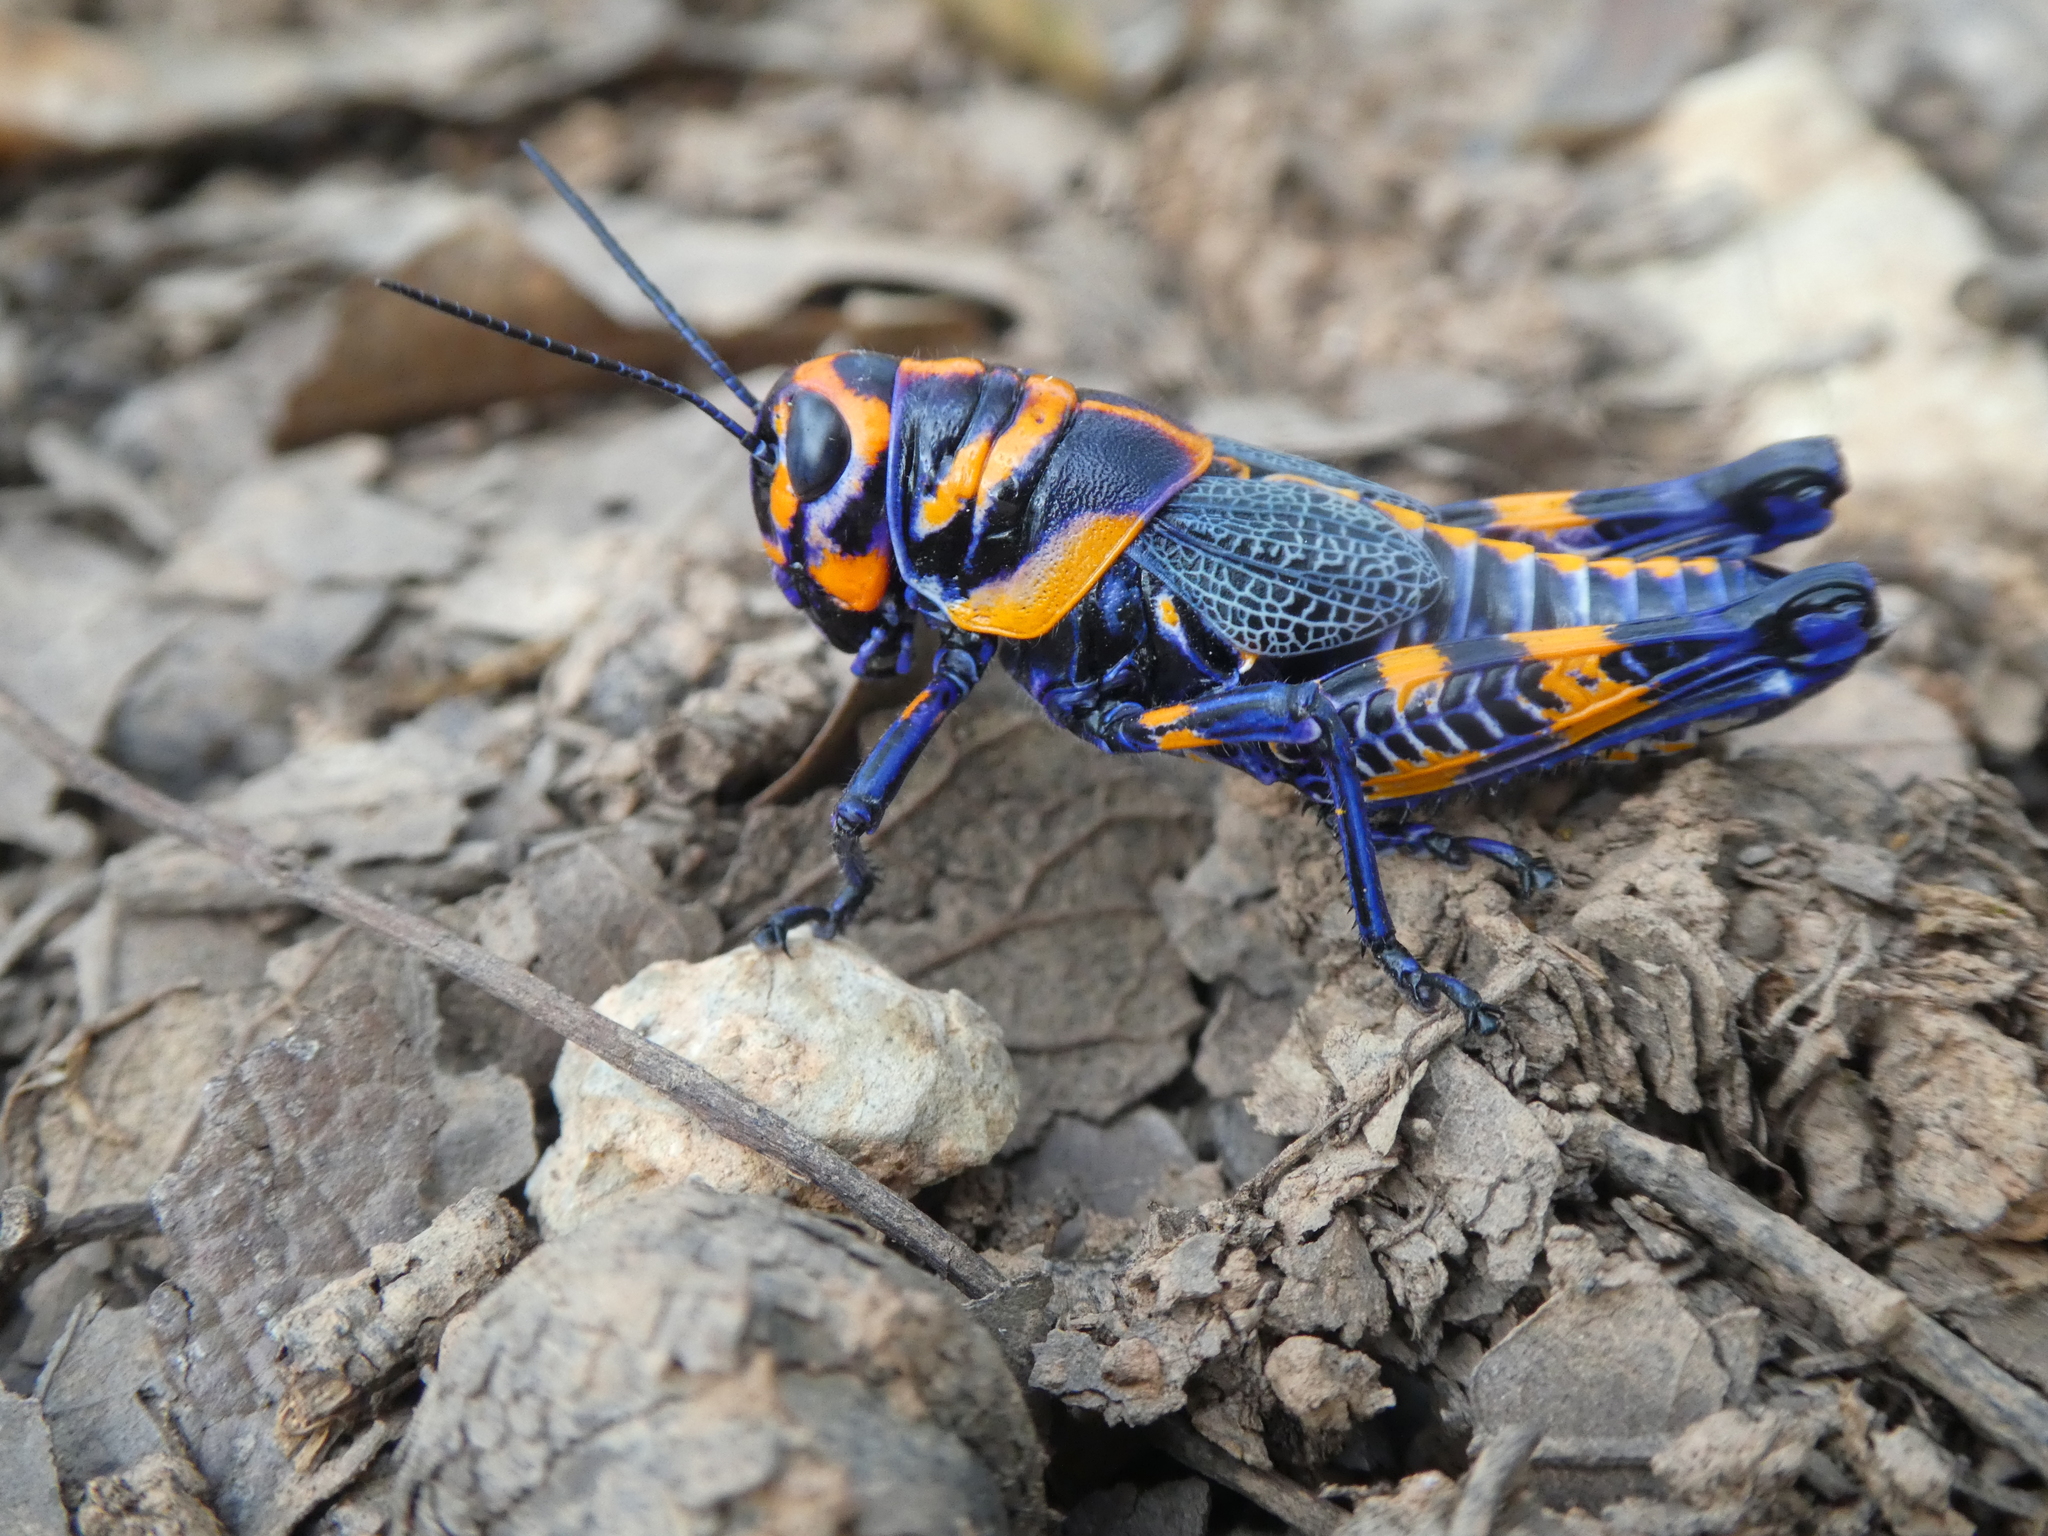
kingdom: Animalia
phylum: Arthropoda
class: Insecta
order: Orthoptera
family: Acrididae
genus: Dactylotum
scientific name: Dactylotum bicolor
